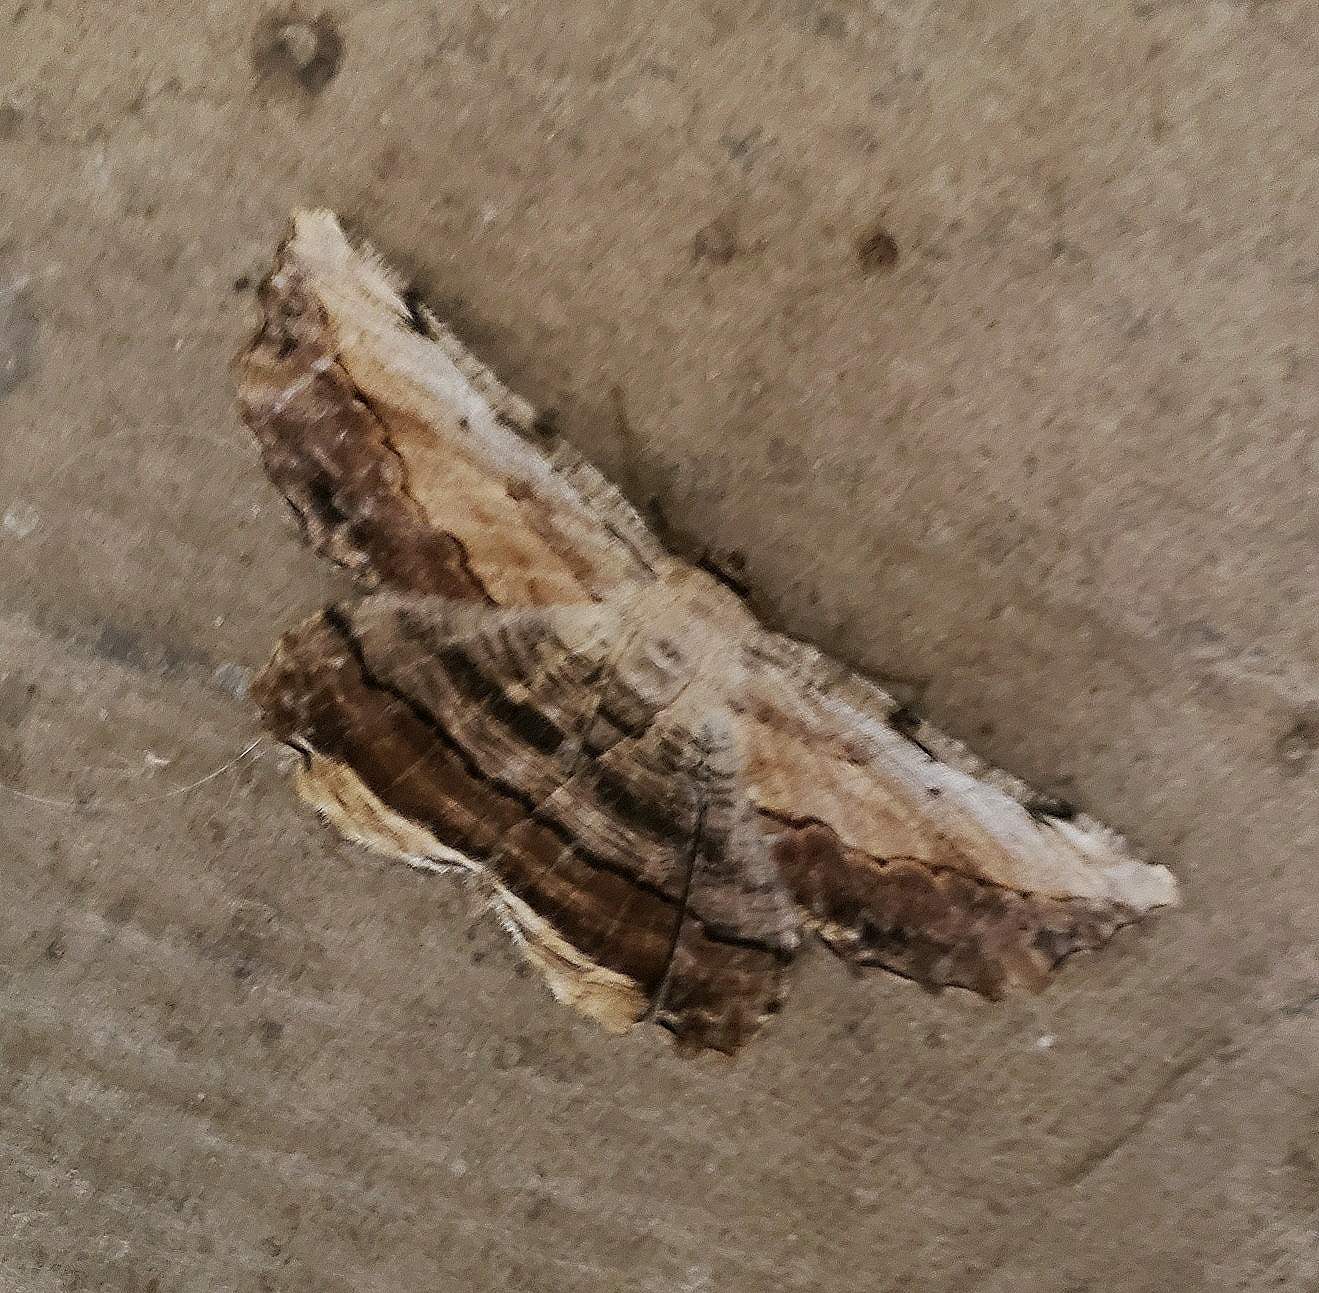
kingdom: Animalia
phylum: Arthropoda
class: Insecta
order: Lepidoptera
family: Geometridae
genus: Lytrosis
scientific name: Lytrosis unitaria
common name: Common lytrosis
